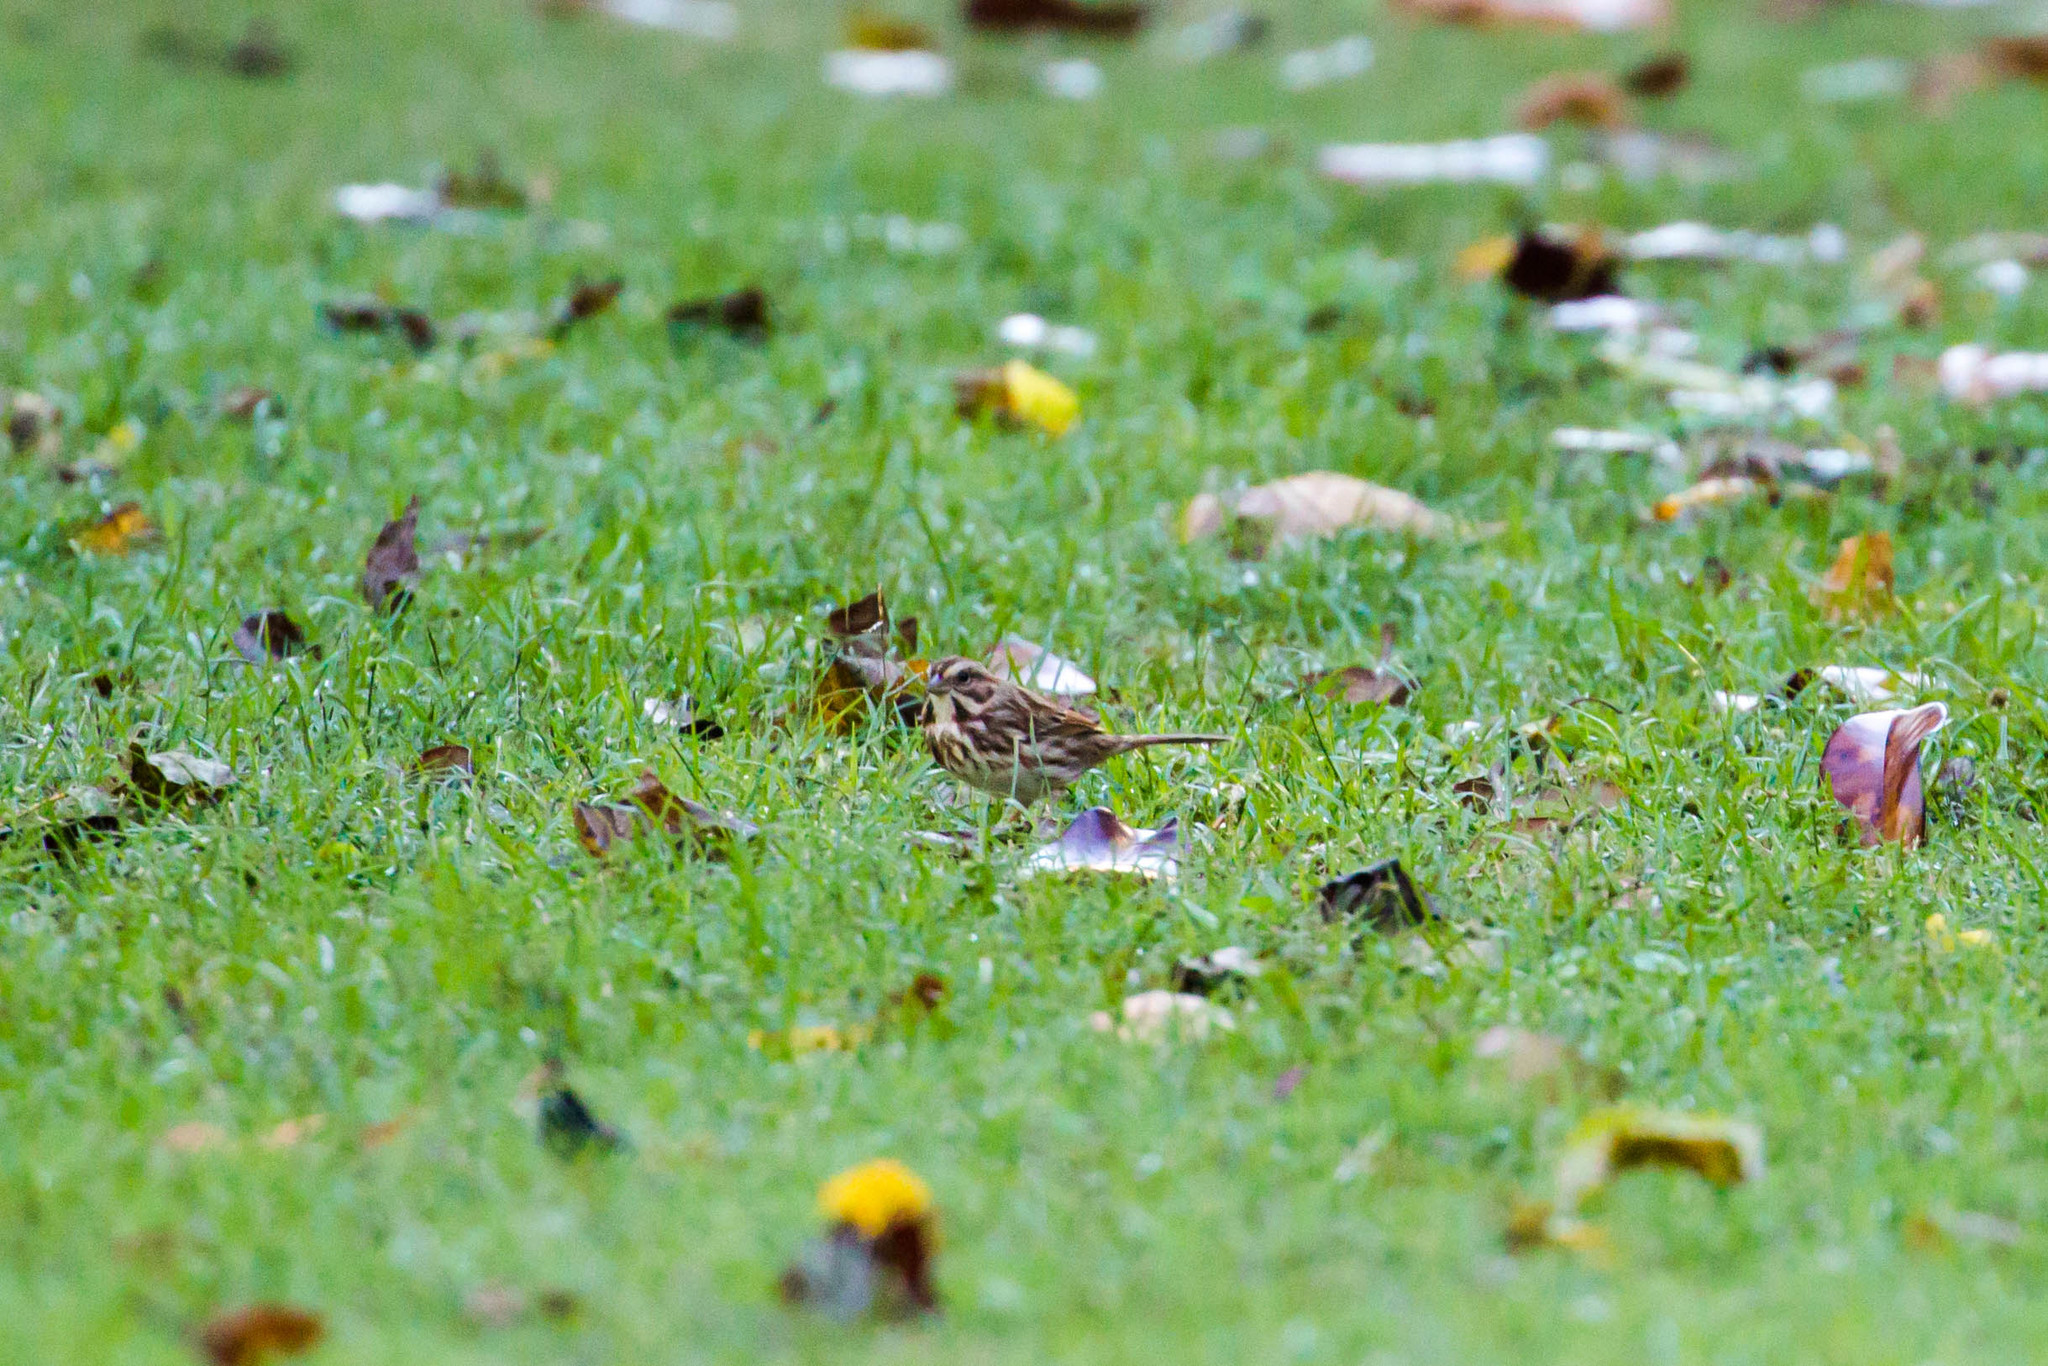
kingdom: Animalia
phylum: Chordata
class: Aves
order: Passeriformes
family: Passerellidae
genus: Melospiza
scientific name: Melospiza melodia
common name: Song sparrow
